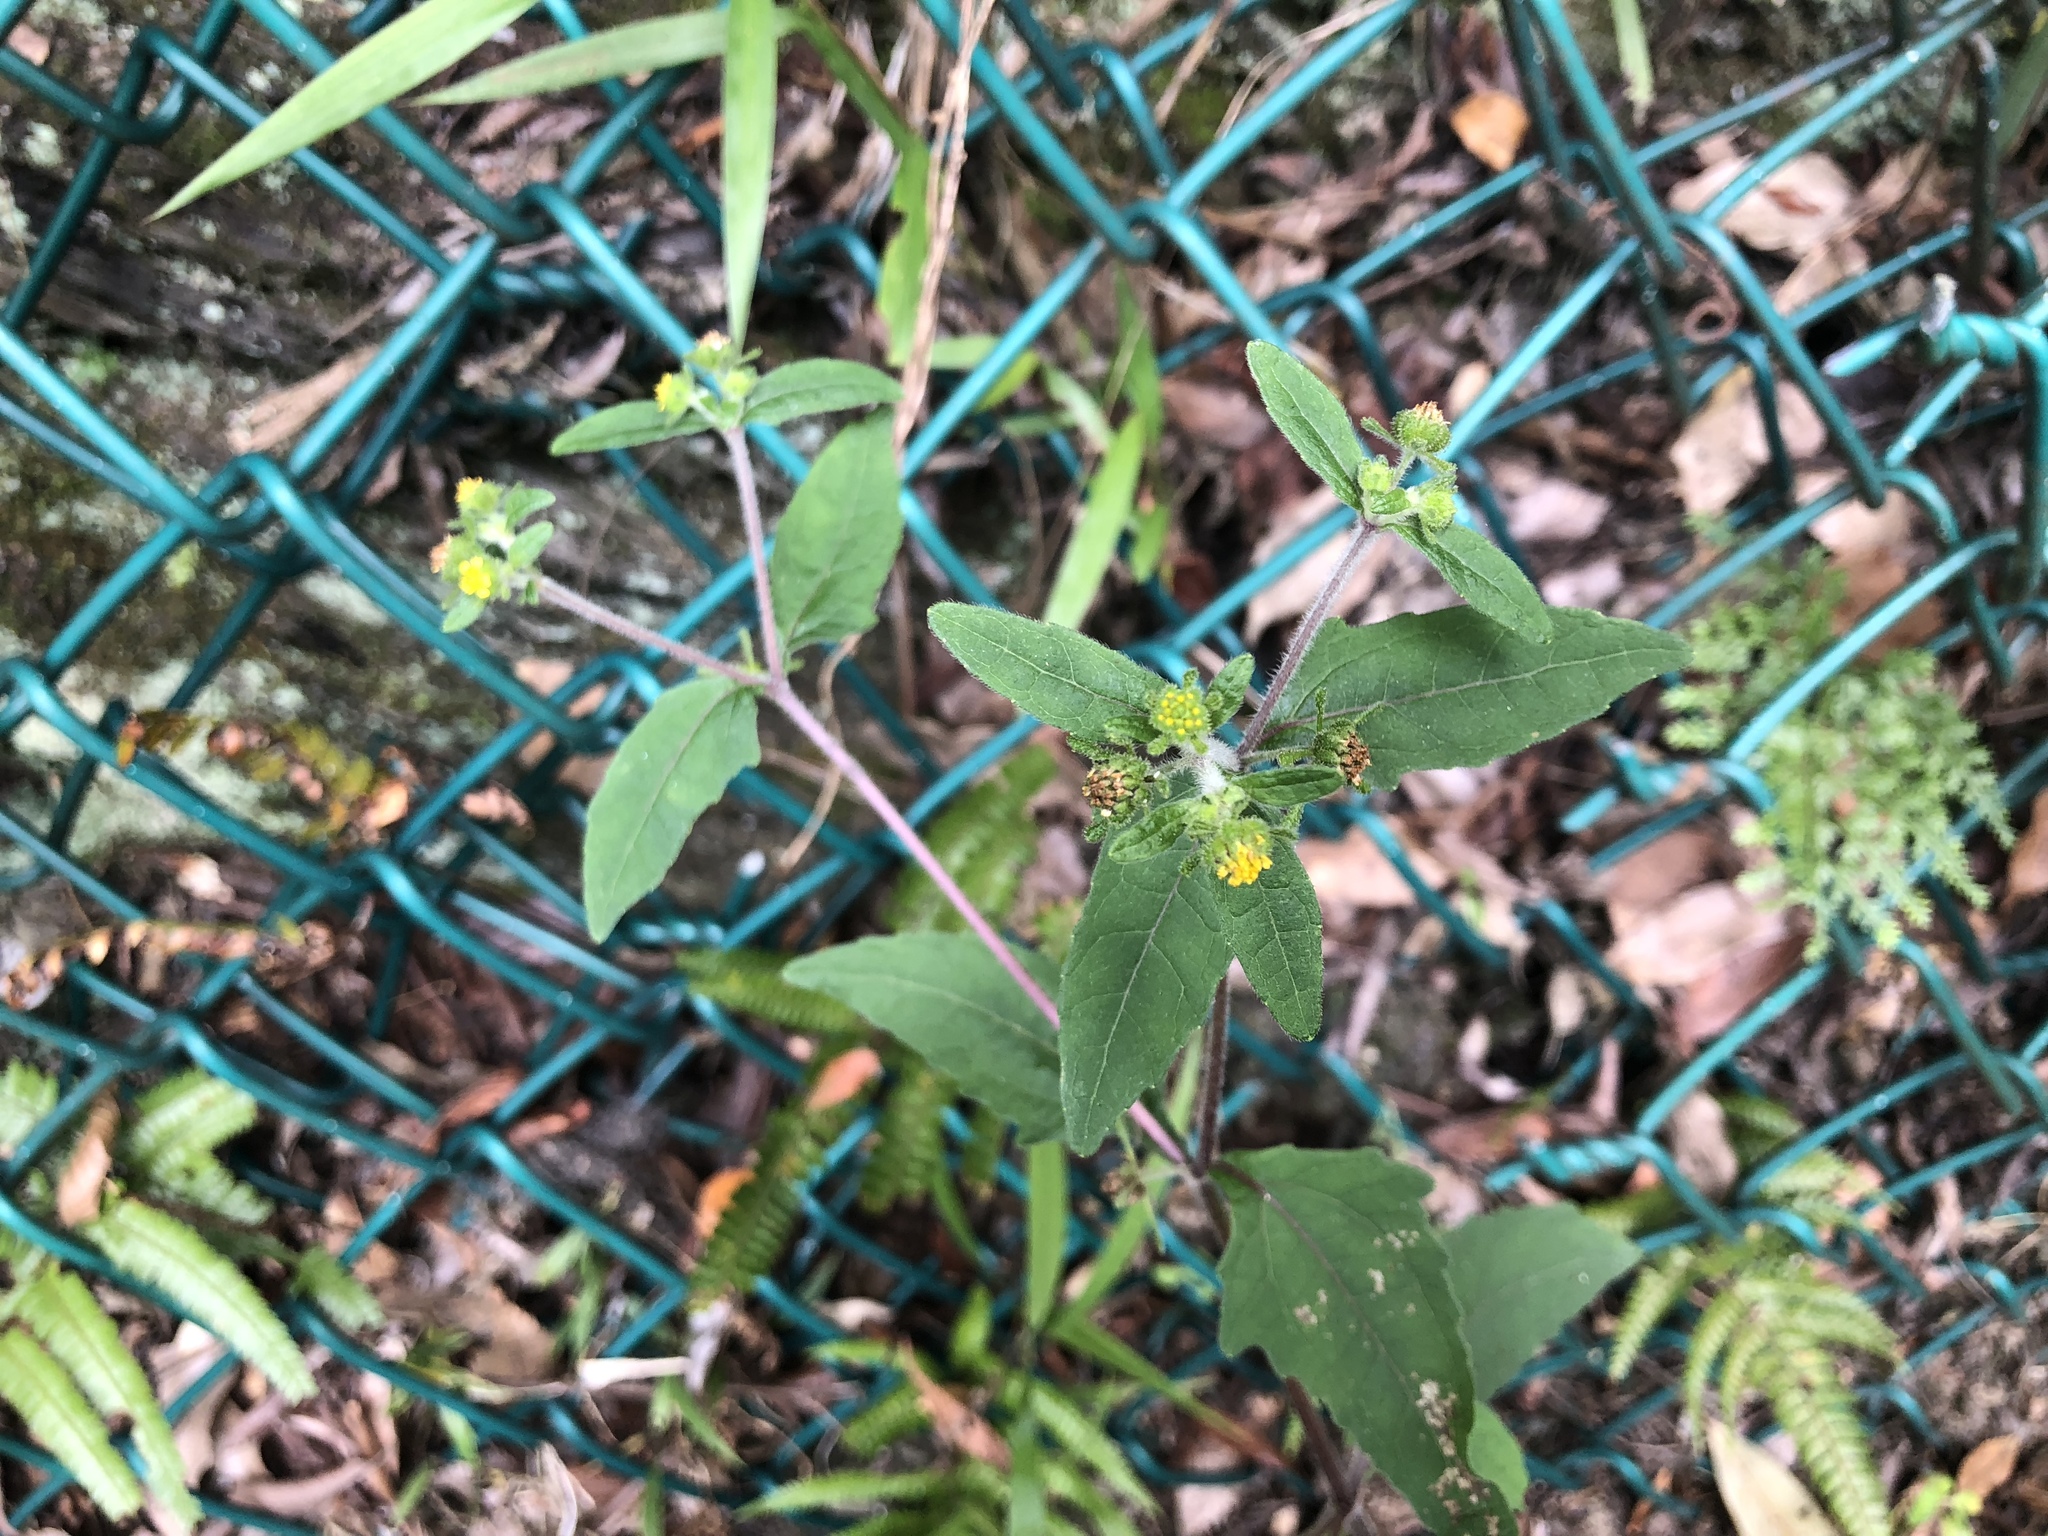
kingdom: Plantae
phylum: Tracheophyta
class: Magnoliopsida
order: Asterales
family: Asteraceae
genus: Sigesbeckia
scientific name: Sigesbeckia orientalis
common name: Eastern st paul's-wort
